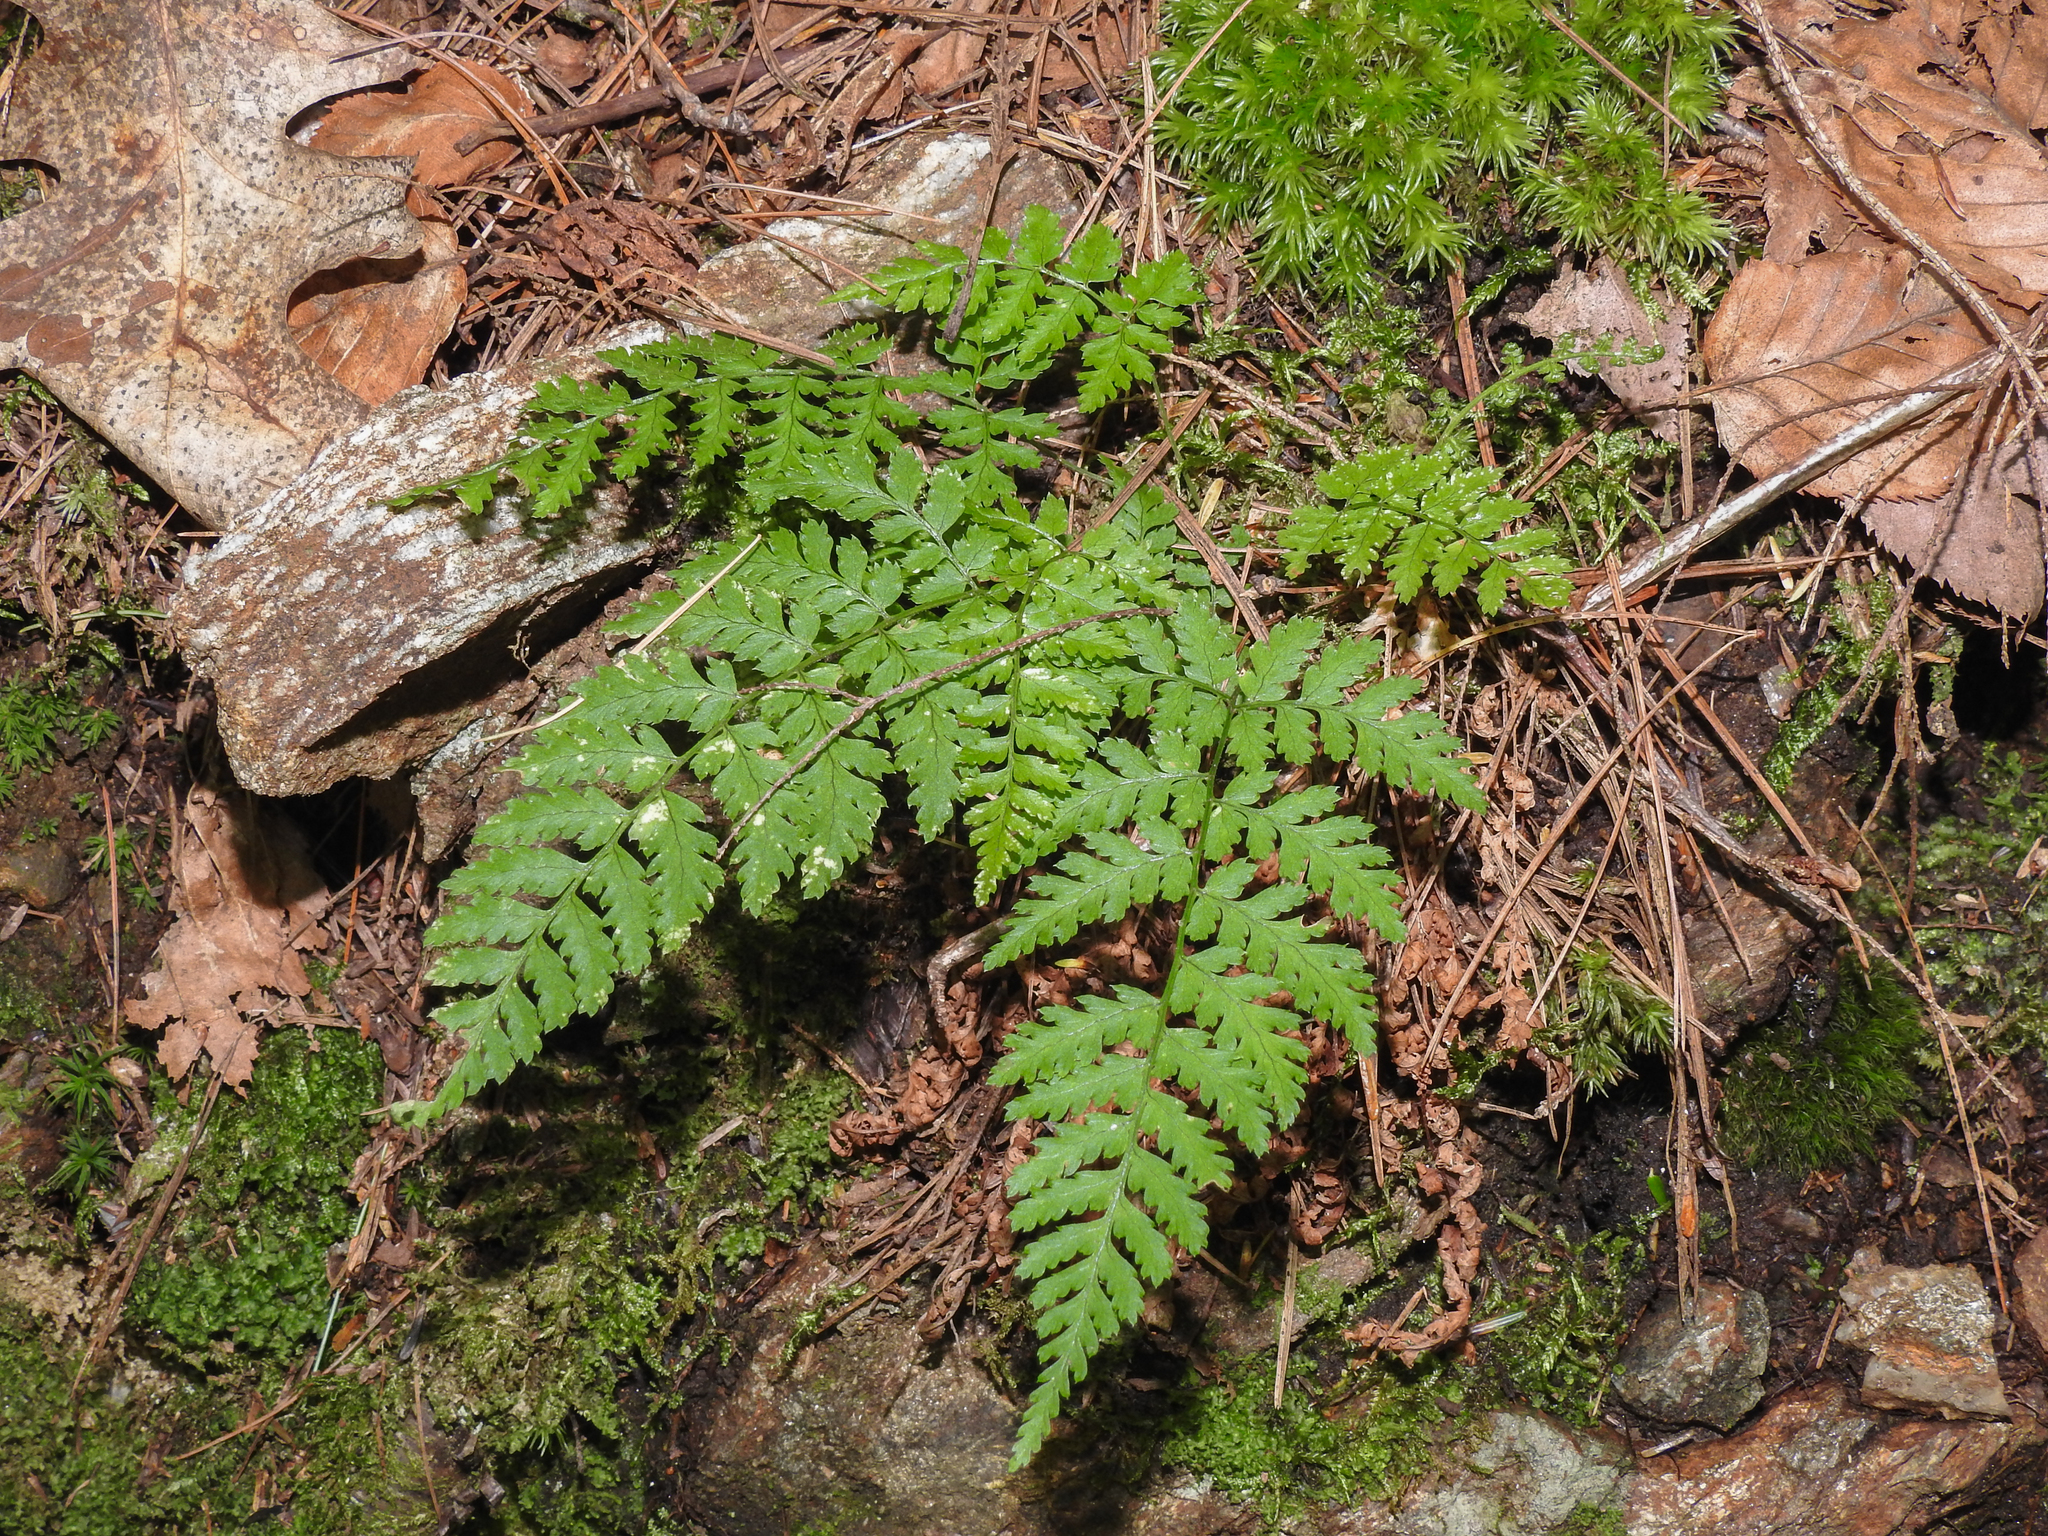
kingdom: Plantae
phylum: Tracheophyta
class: Polypodiopsida
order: Polypodiales
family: Dryopteridaceae
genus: Dryopteris
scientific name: Dryopteris intermedia
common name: Evergreen wood fern
